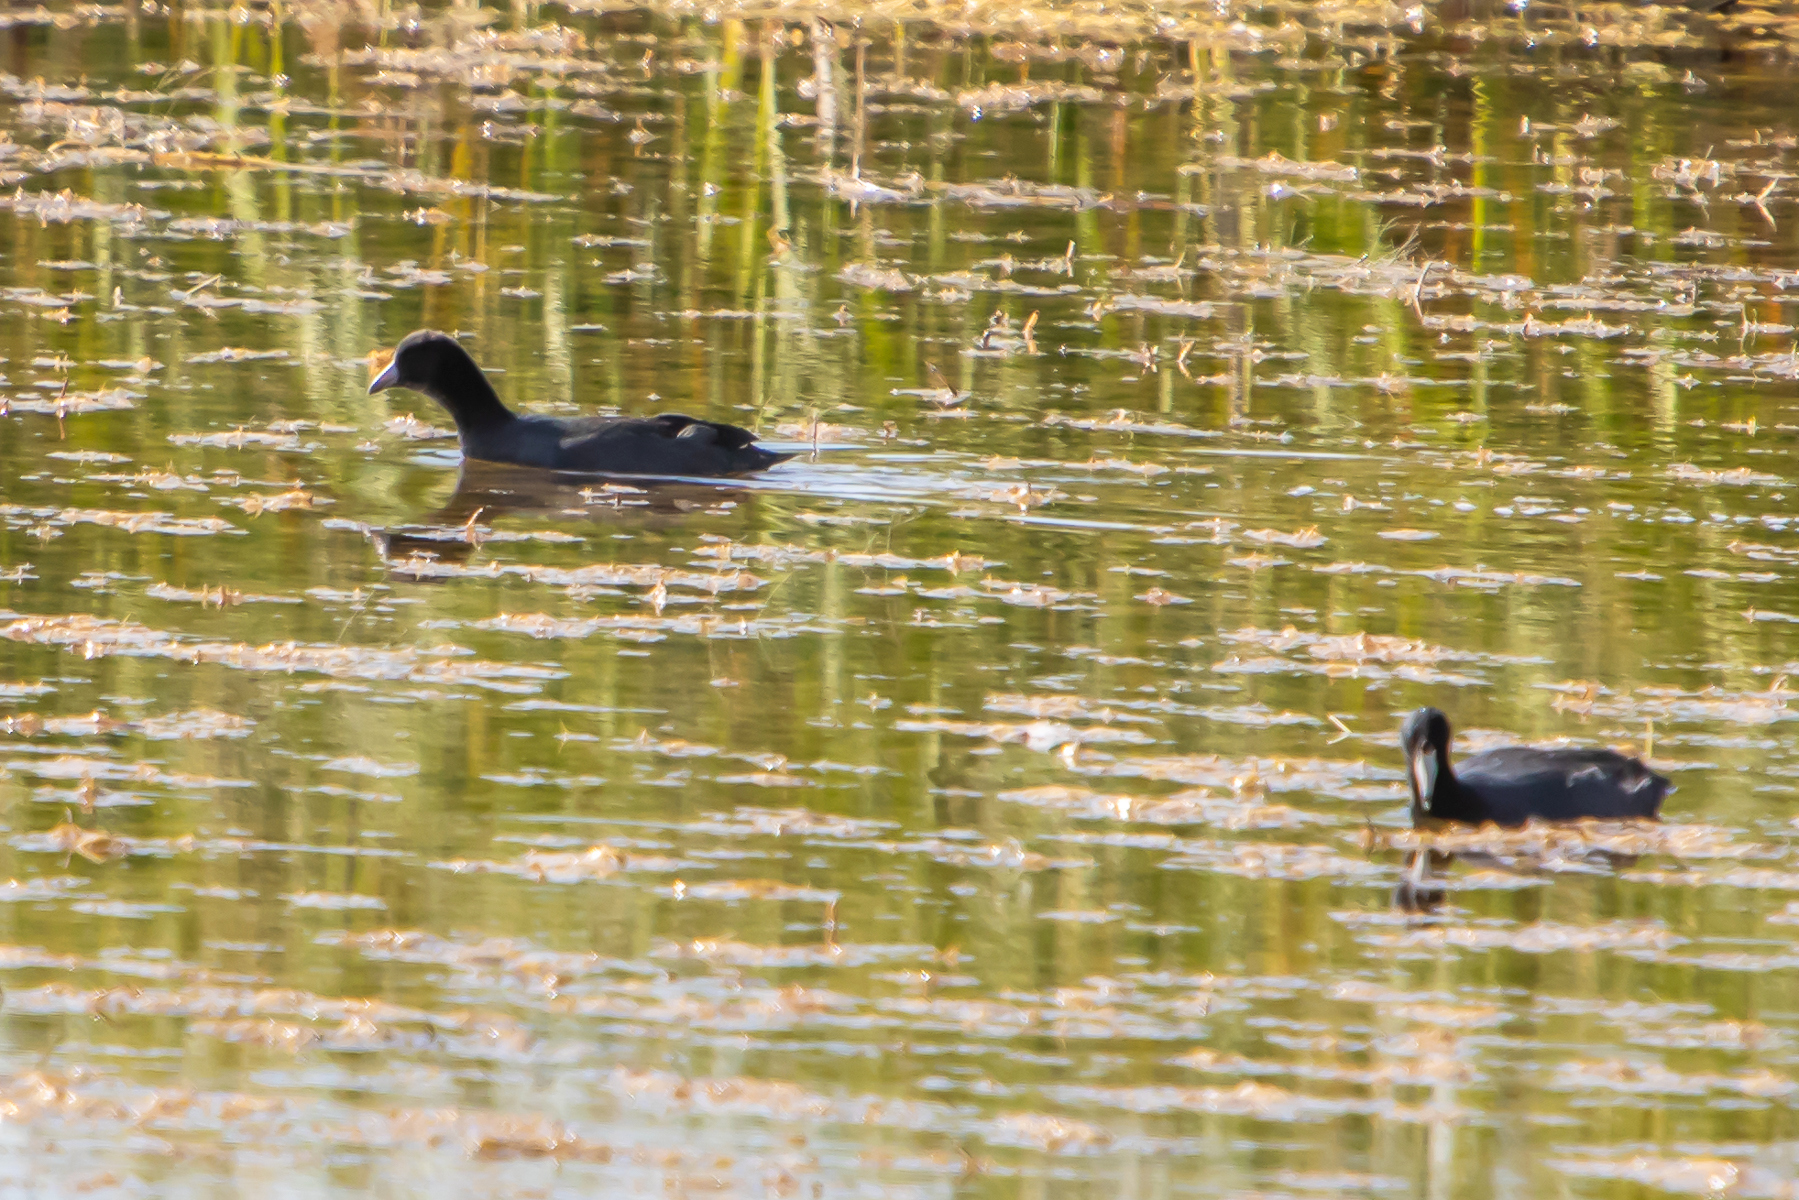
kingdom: Animalia
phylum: Chordata
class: Aves
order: Gruiformes
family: Rallidae
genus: Fulica
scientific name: Fulica americana
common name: American coot
